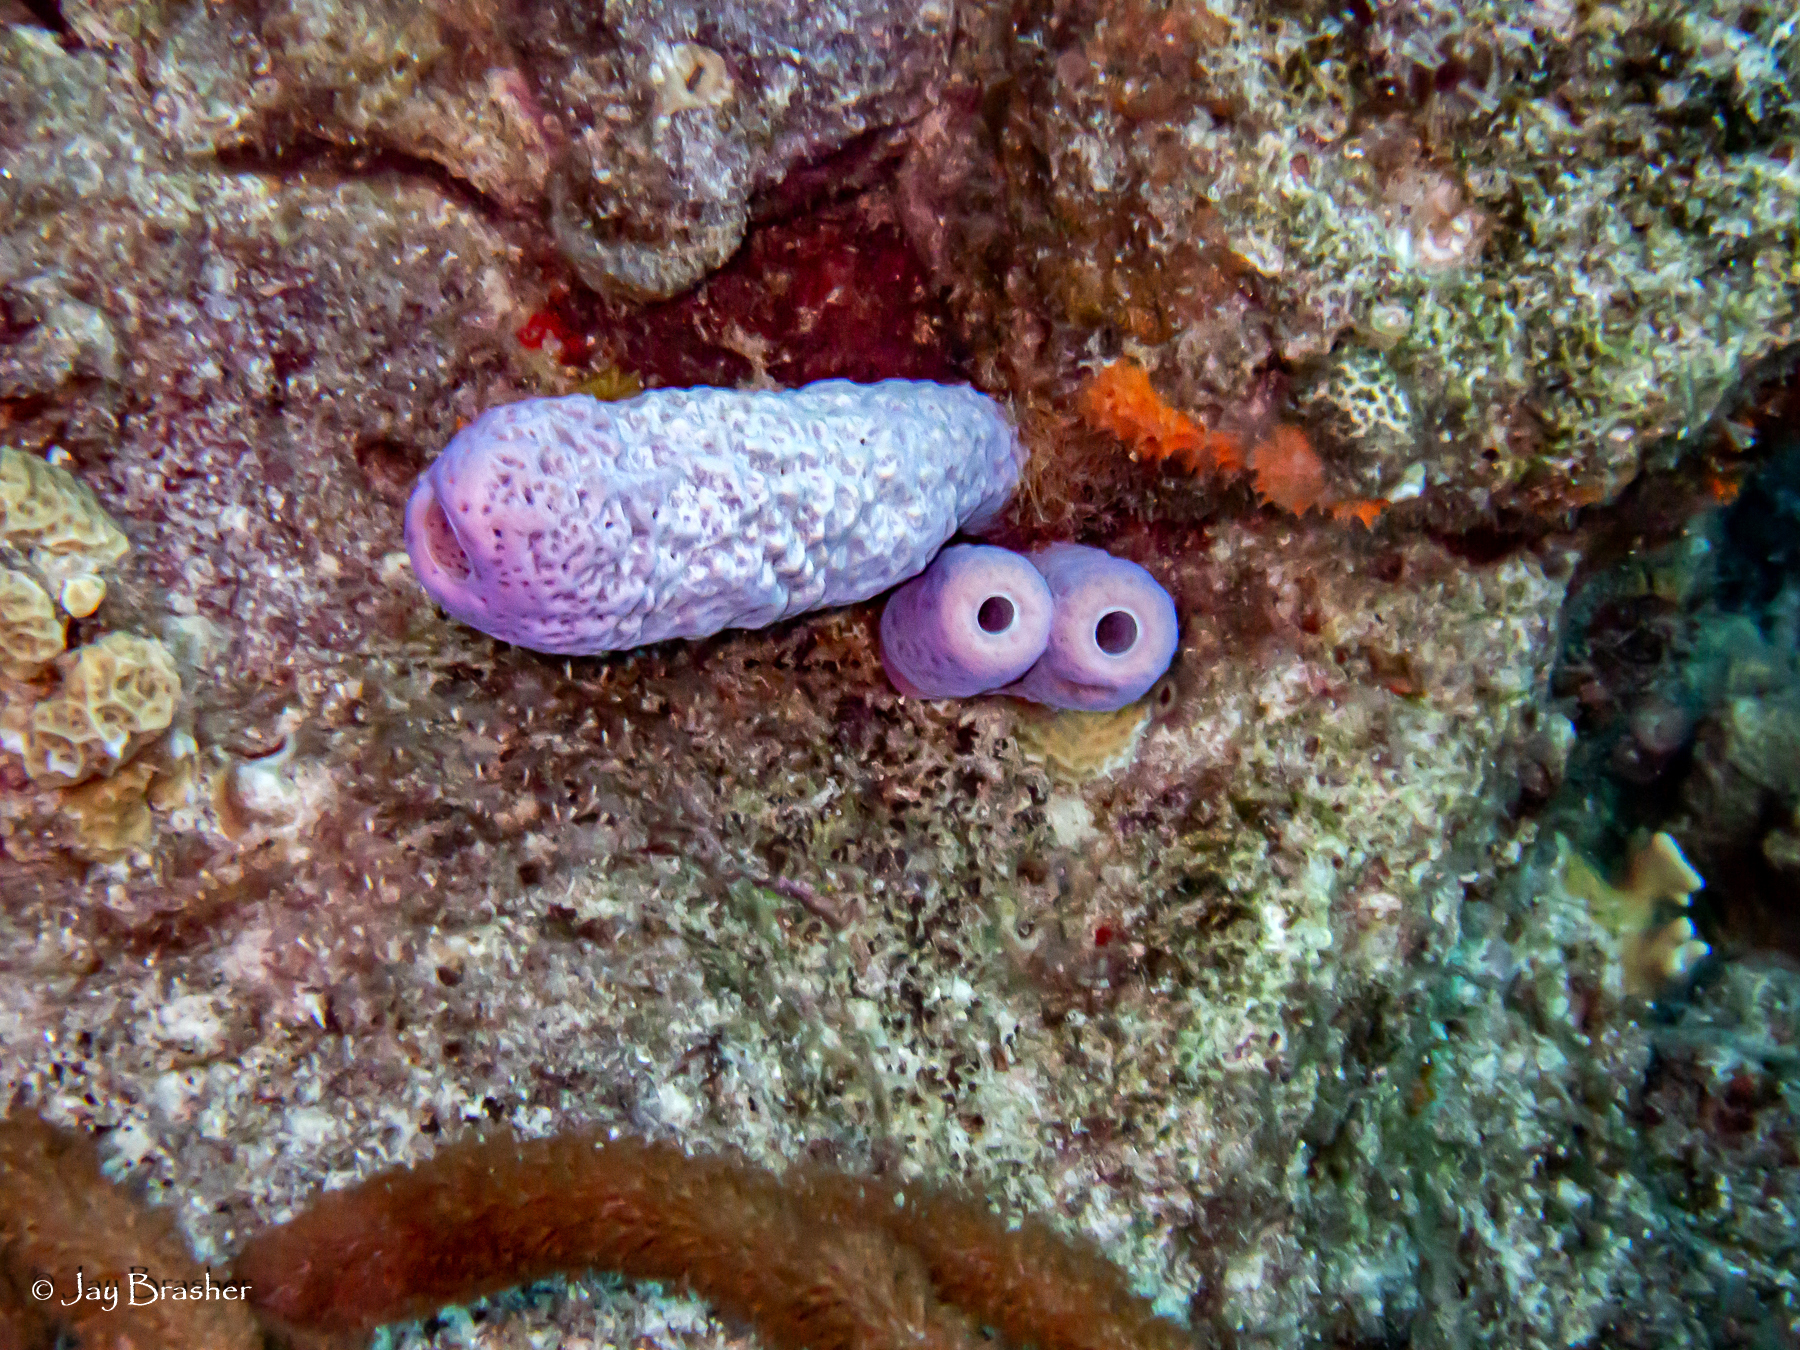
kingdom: Animalia
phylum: Porifera
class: Demospongiae
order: Verongiida
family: Aplysinidae
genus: Aplysina
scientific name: Aplysina archeri
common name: Stove-pipe sponge
